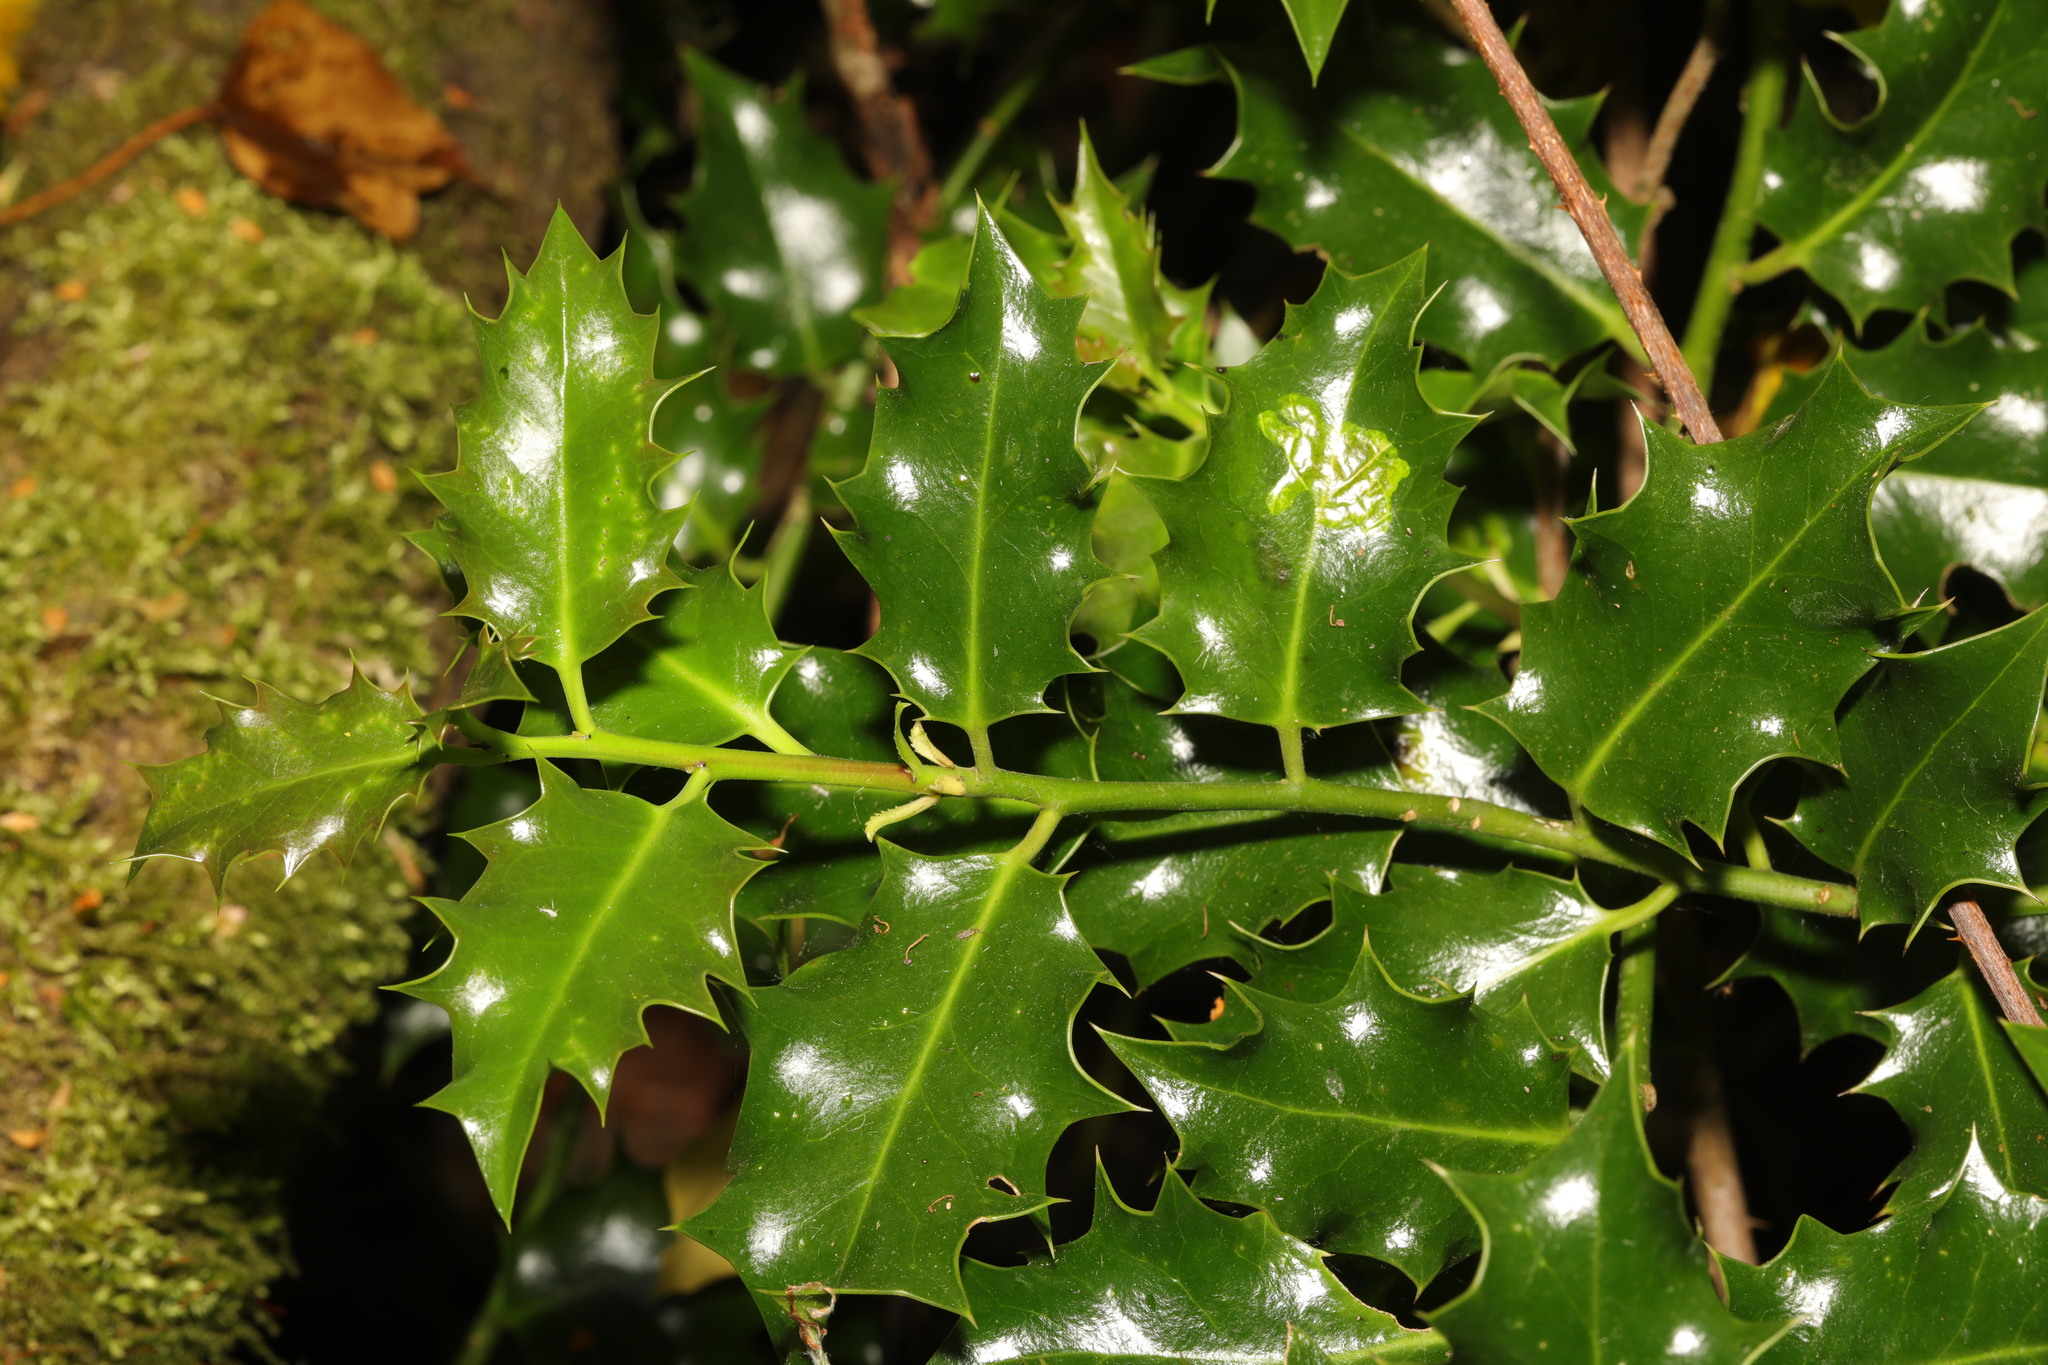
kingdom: Plantae
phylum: Tracheophyta
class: Magnoliopsida
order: Aquifoliales
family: Aquifoliaceae
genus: Ilex
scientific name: Ilex aquifolium
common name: English holly
